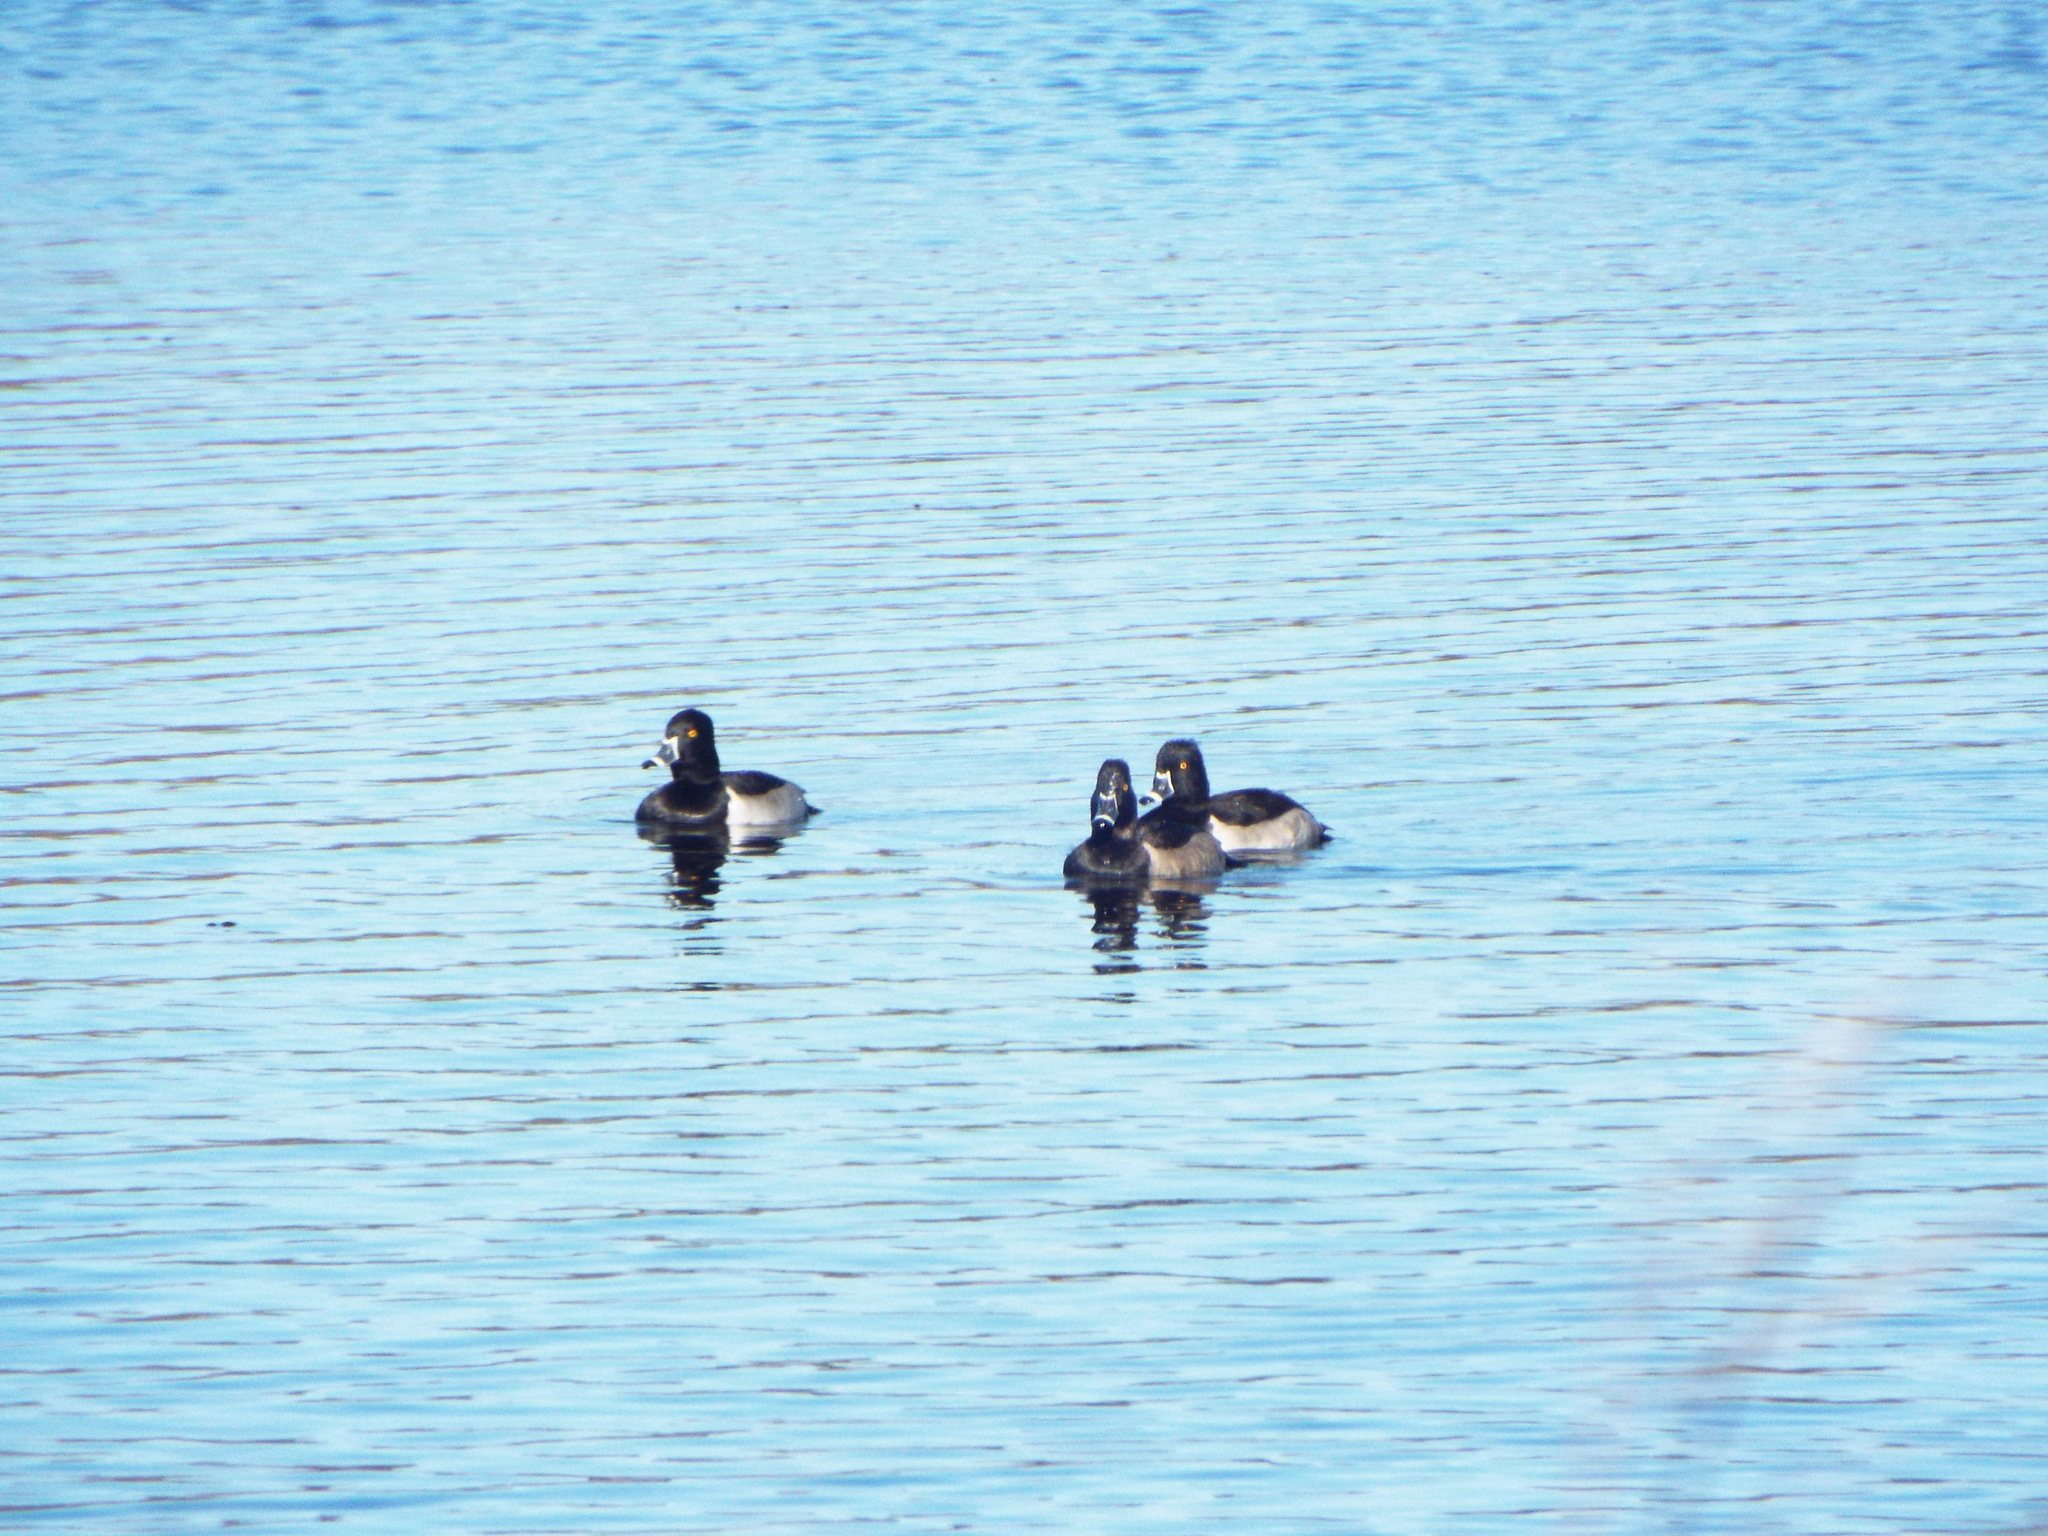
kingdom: Animalia
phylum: Chordata
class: Aves
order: Anseriformes
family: Anatidae
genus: Aythya
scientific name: Aythya collaris
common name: Ring-necked duck
